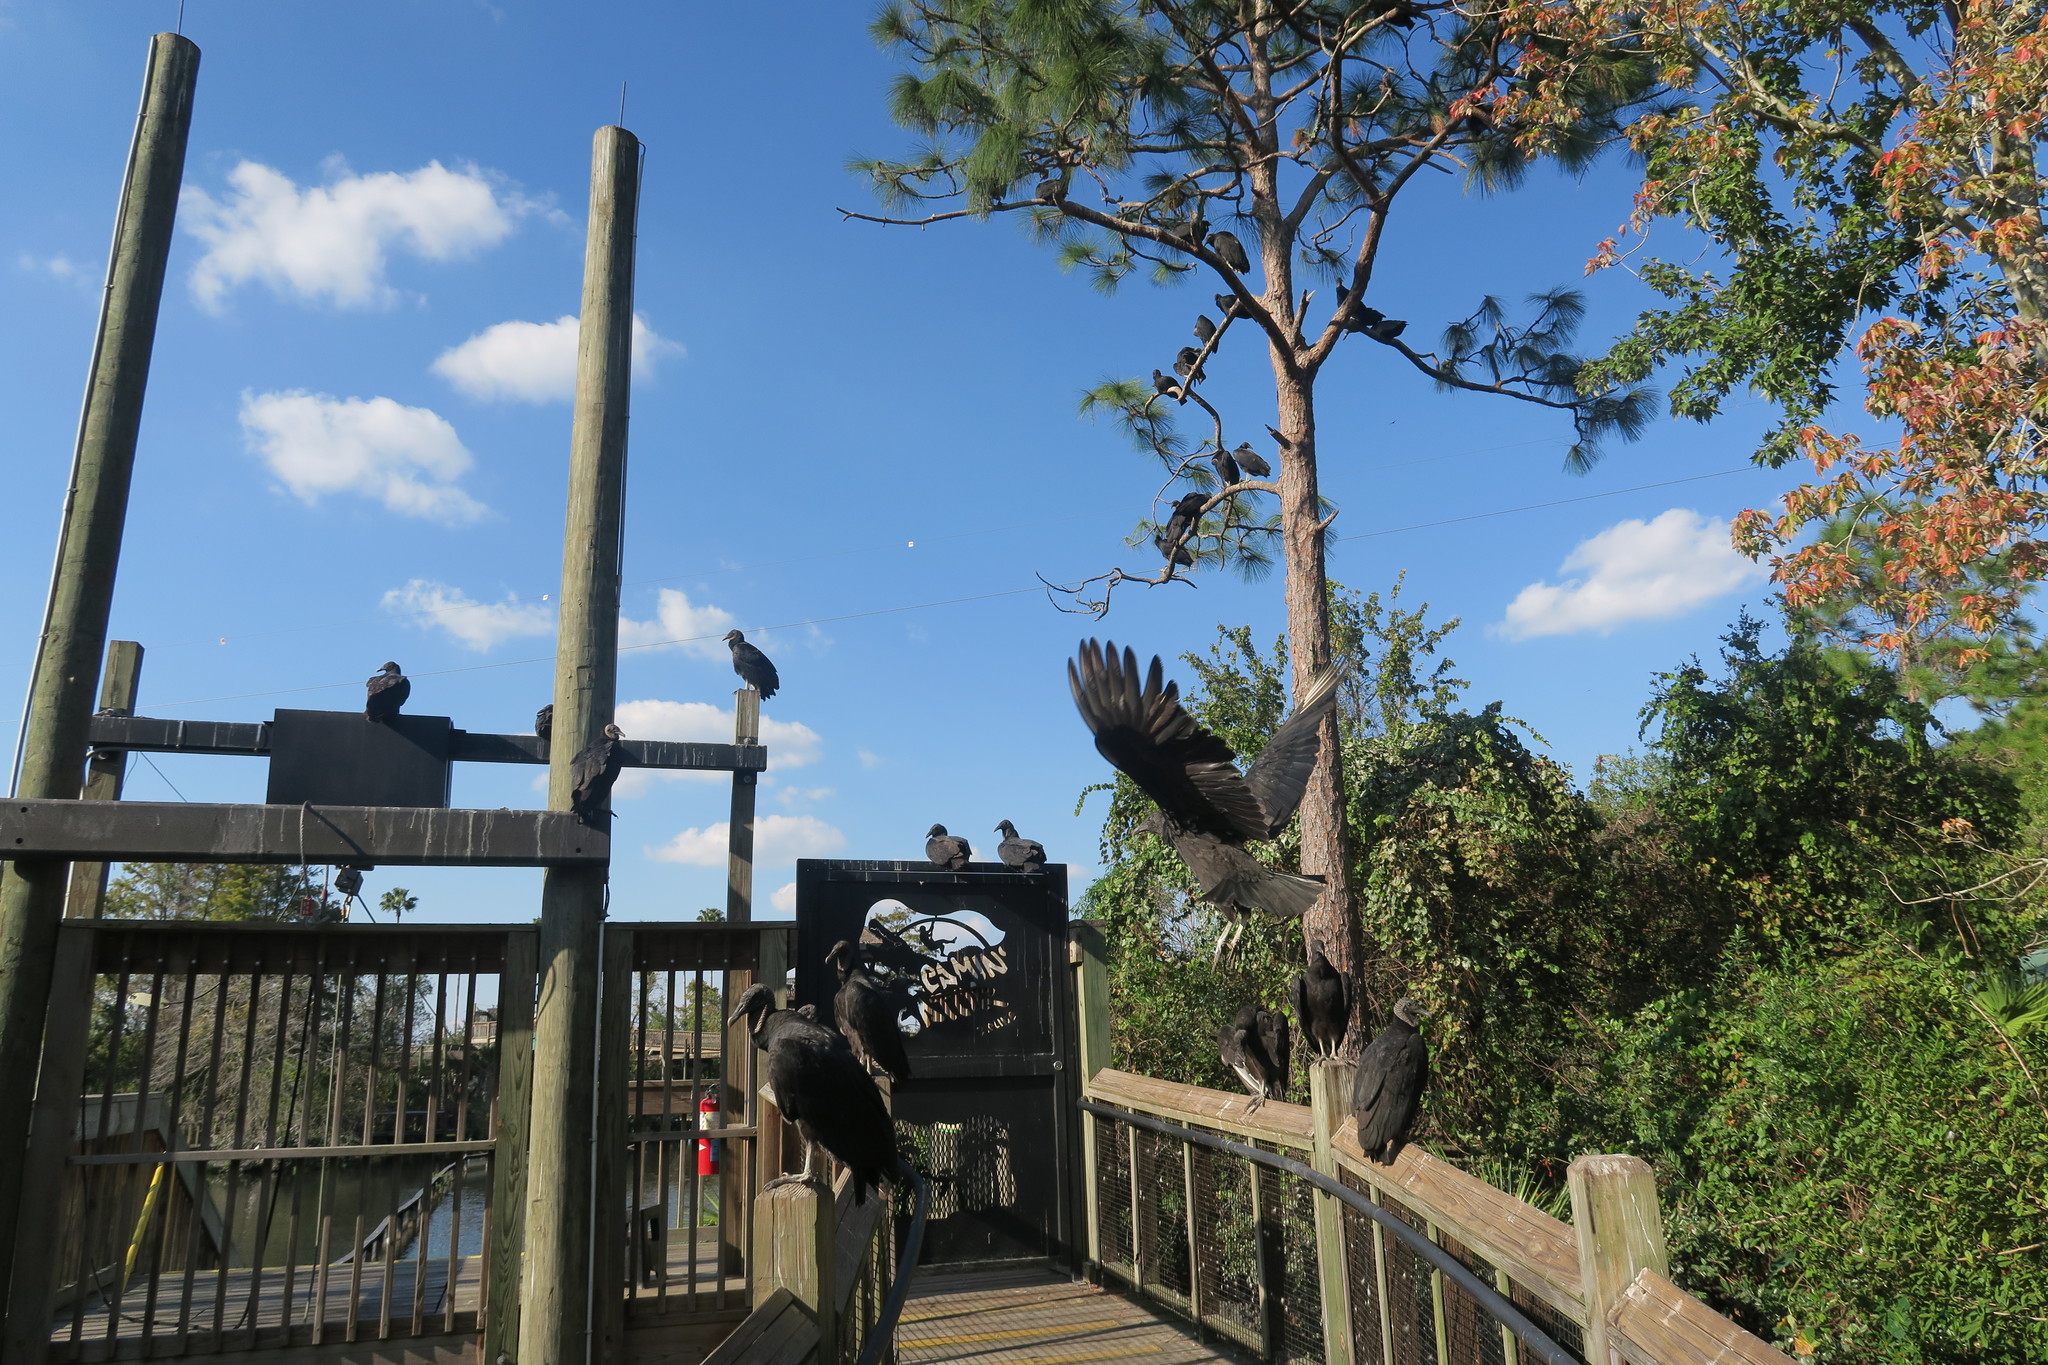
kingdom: Animalia
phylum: Chordata
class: Aves
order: Accipitriformes
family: Cathartidae
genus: Coragyps
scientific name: Coragyps atratus
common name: Black vulture
